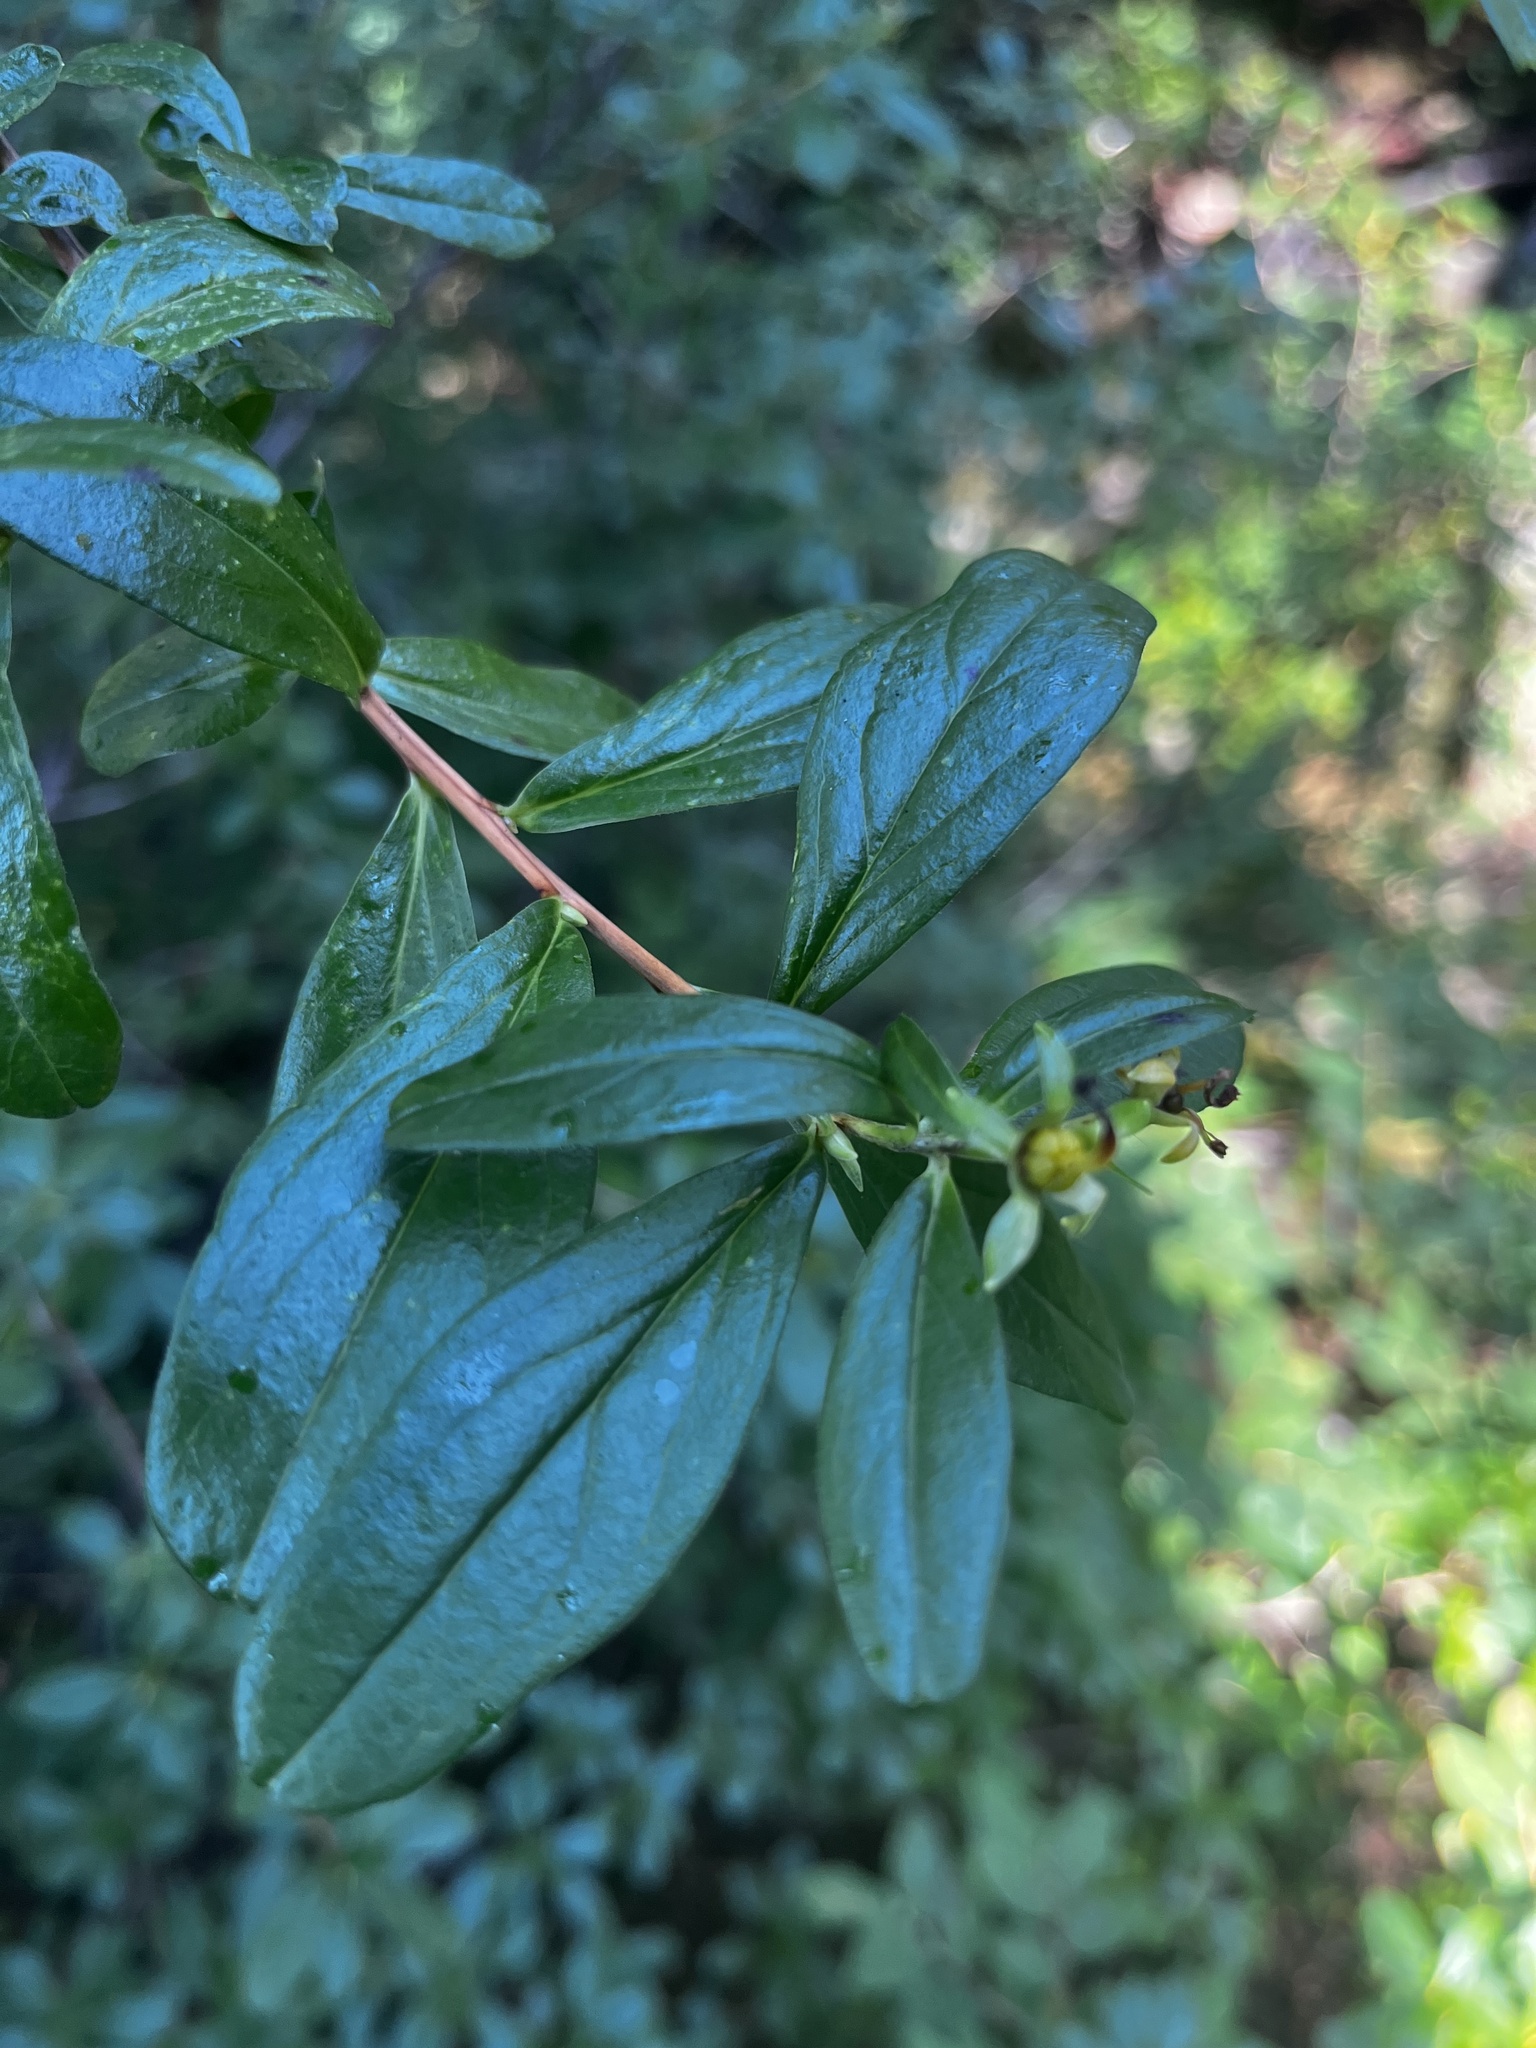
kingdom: Plantae
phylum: Tracheophyta
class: Magnoliopsida
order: Ericales
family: Ericaceae
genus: Elliottia
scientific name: Elliottia pyroliflora
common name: Copperbush
